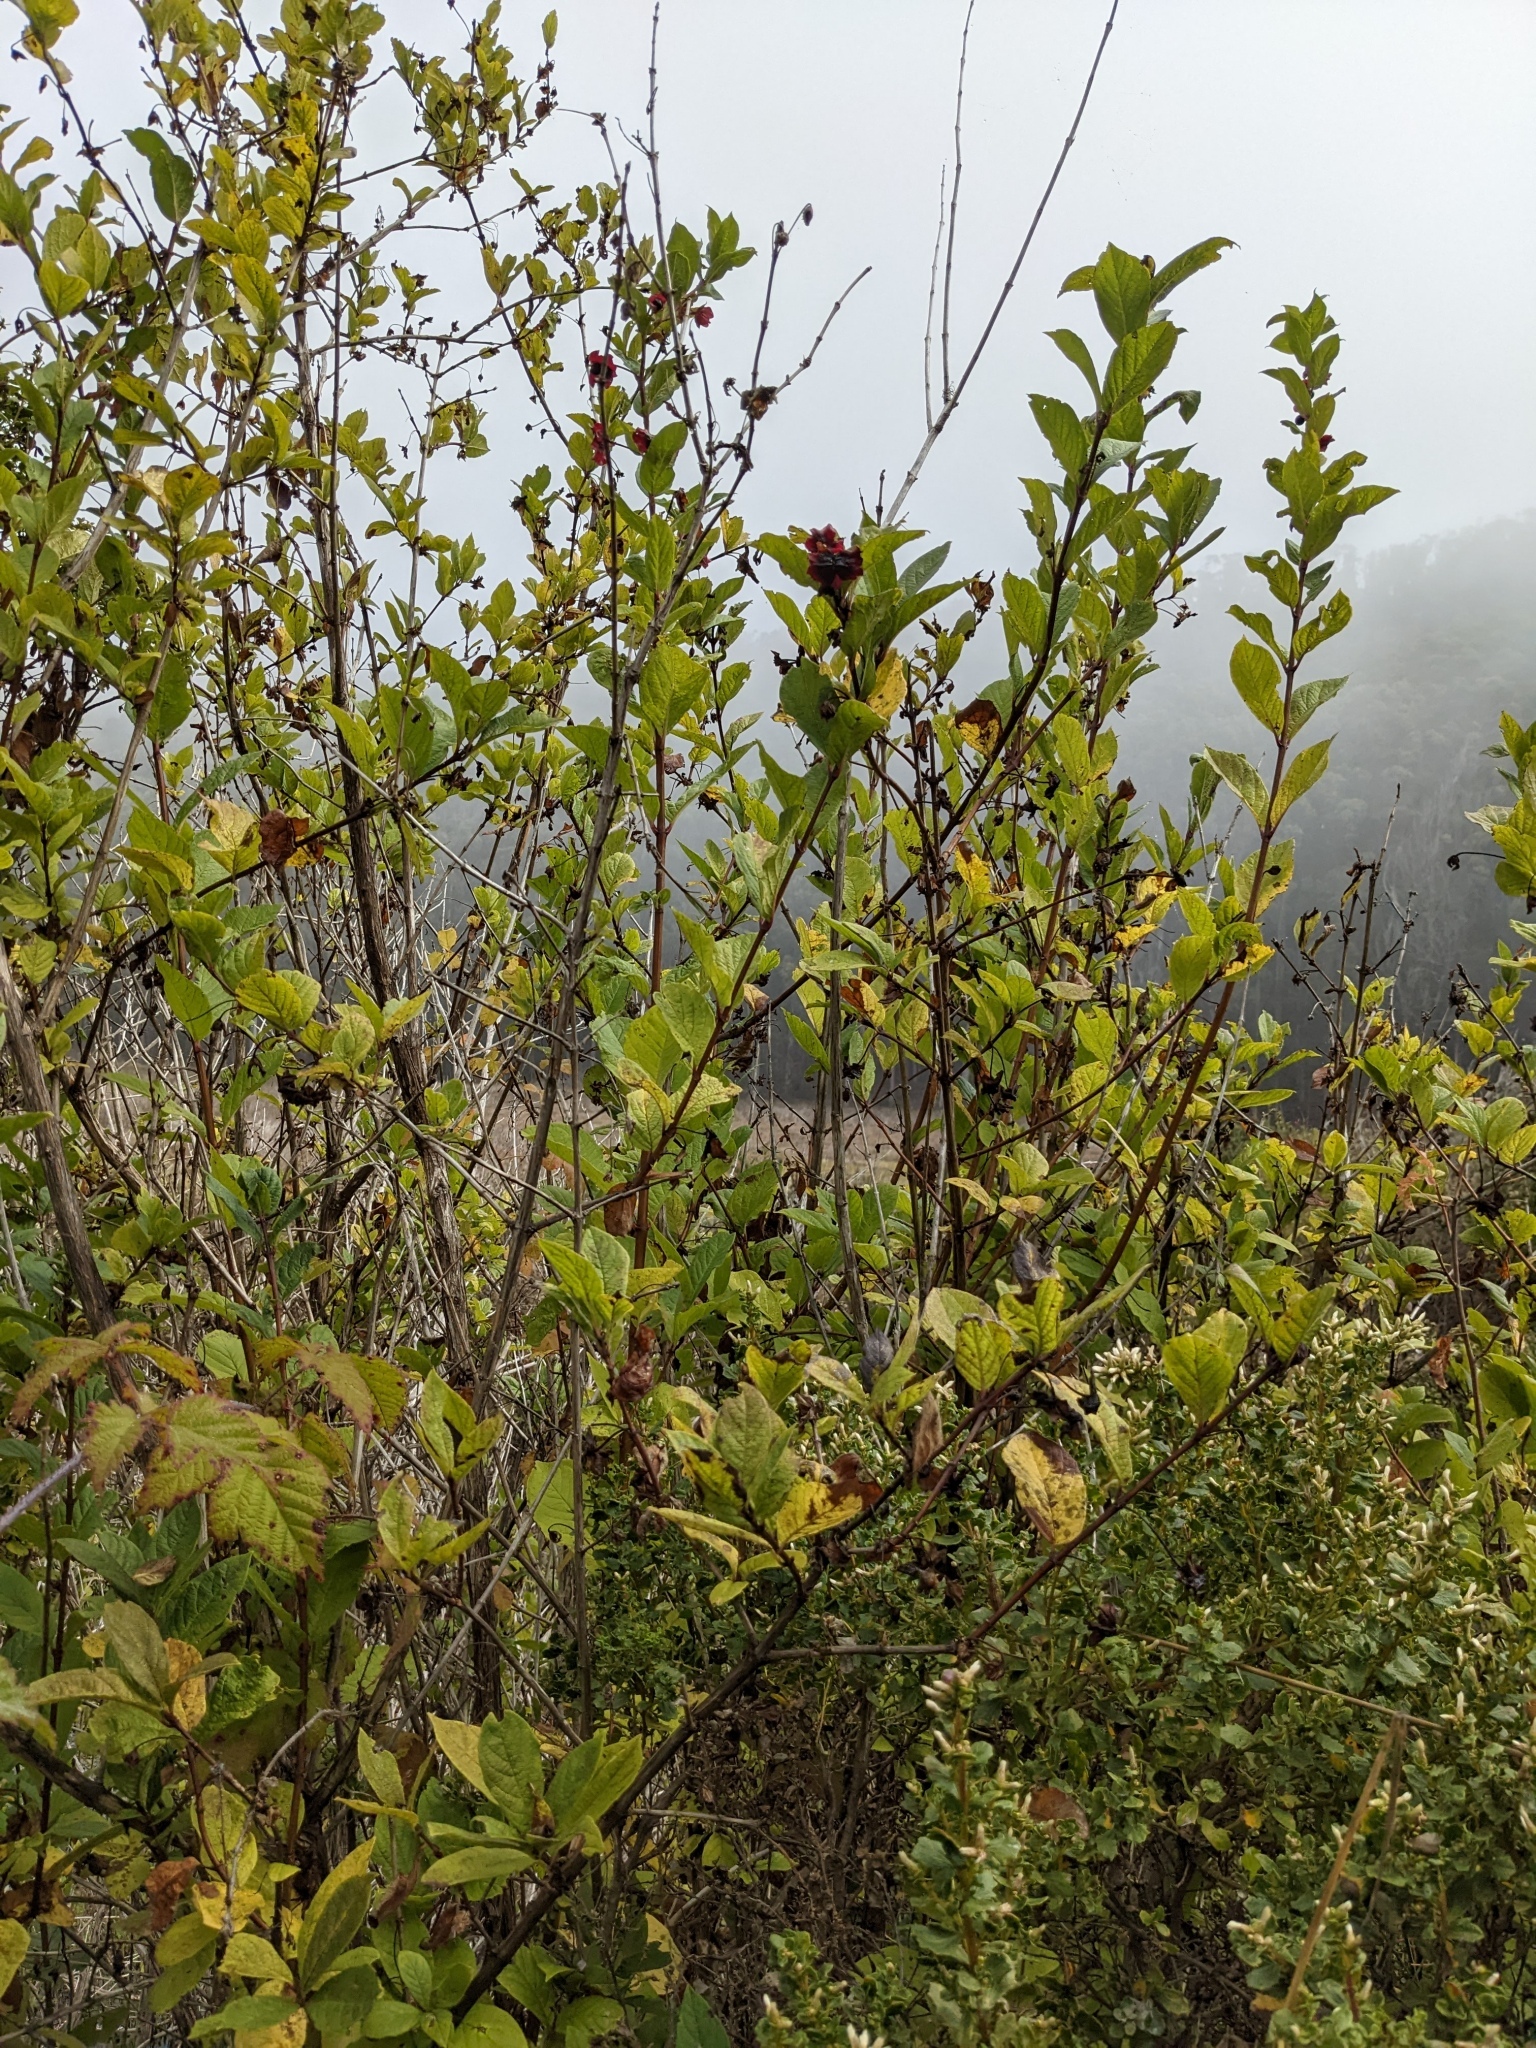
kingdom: Plantae
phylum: Tracheophyta
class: Magnoliopsida
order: Dipsacales
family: Caprifoliaceae
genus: Lonicera
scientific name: Lonicera involucrata
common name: Californian honeysuckle
